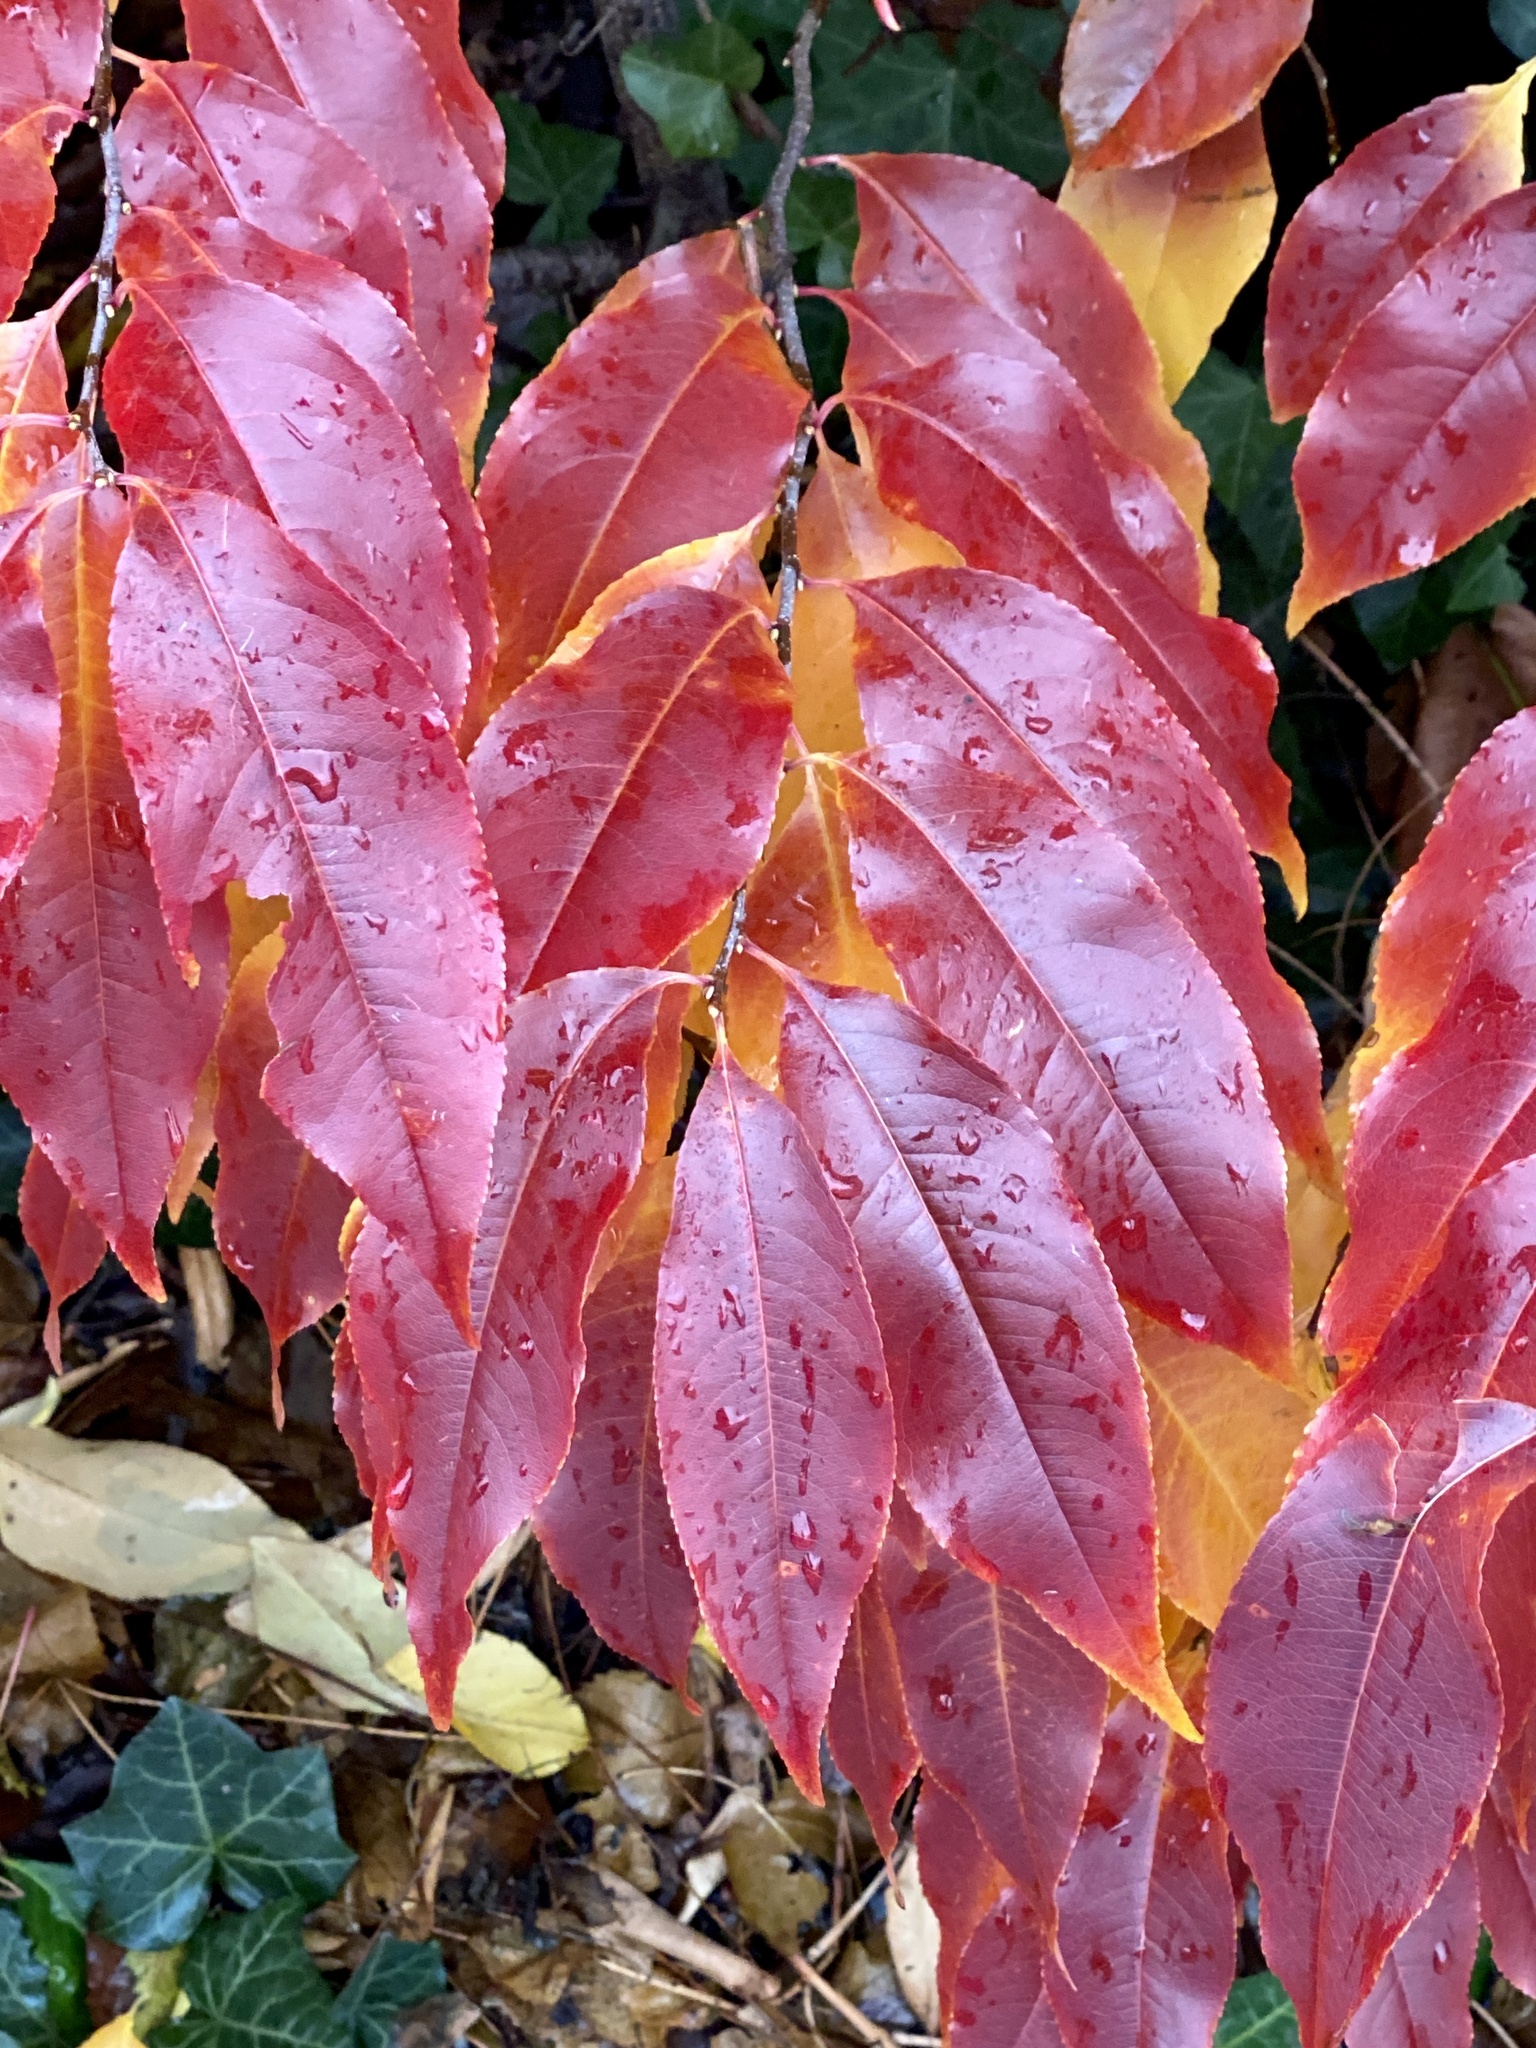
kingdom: Plantae
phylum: Tracheophyta
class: Magnoliopsida
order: Rosales
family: Rosaceae
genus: Prunus
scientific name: Prunus serotina
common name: Black cherry
